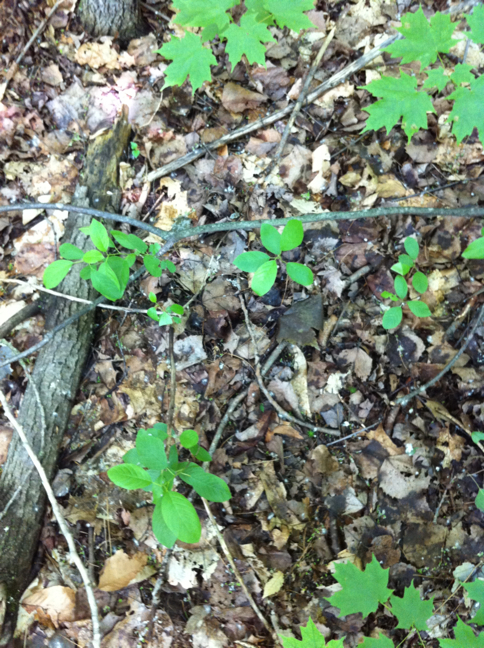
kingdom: Plantae
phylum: Tracheophyta
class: Magnoliopsida
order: Sapindales
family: Sapindaceae
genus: Acer
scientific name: Acer saccharum
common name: Sugar maple
